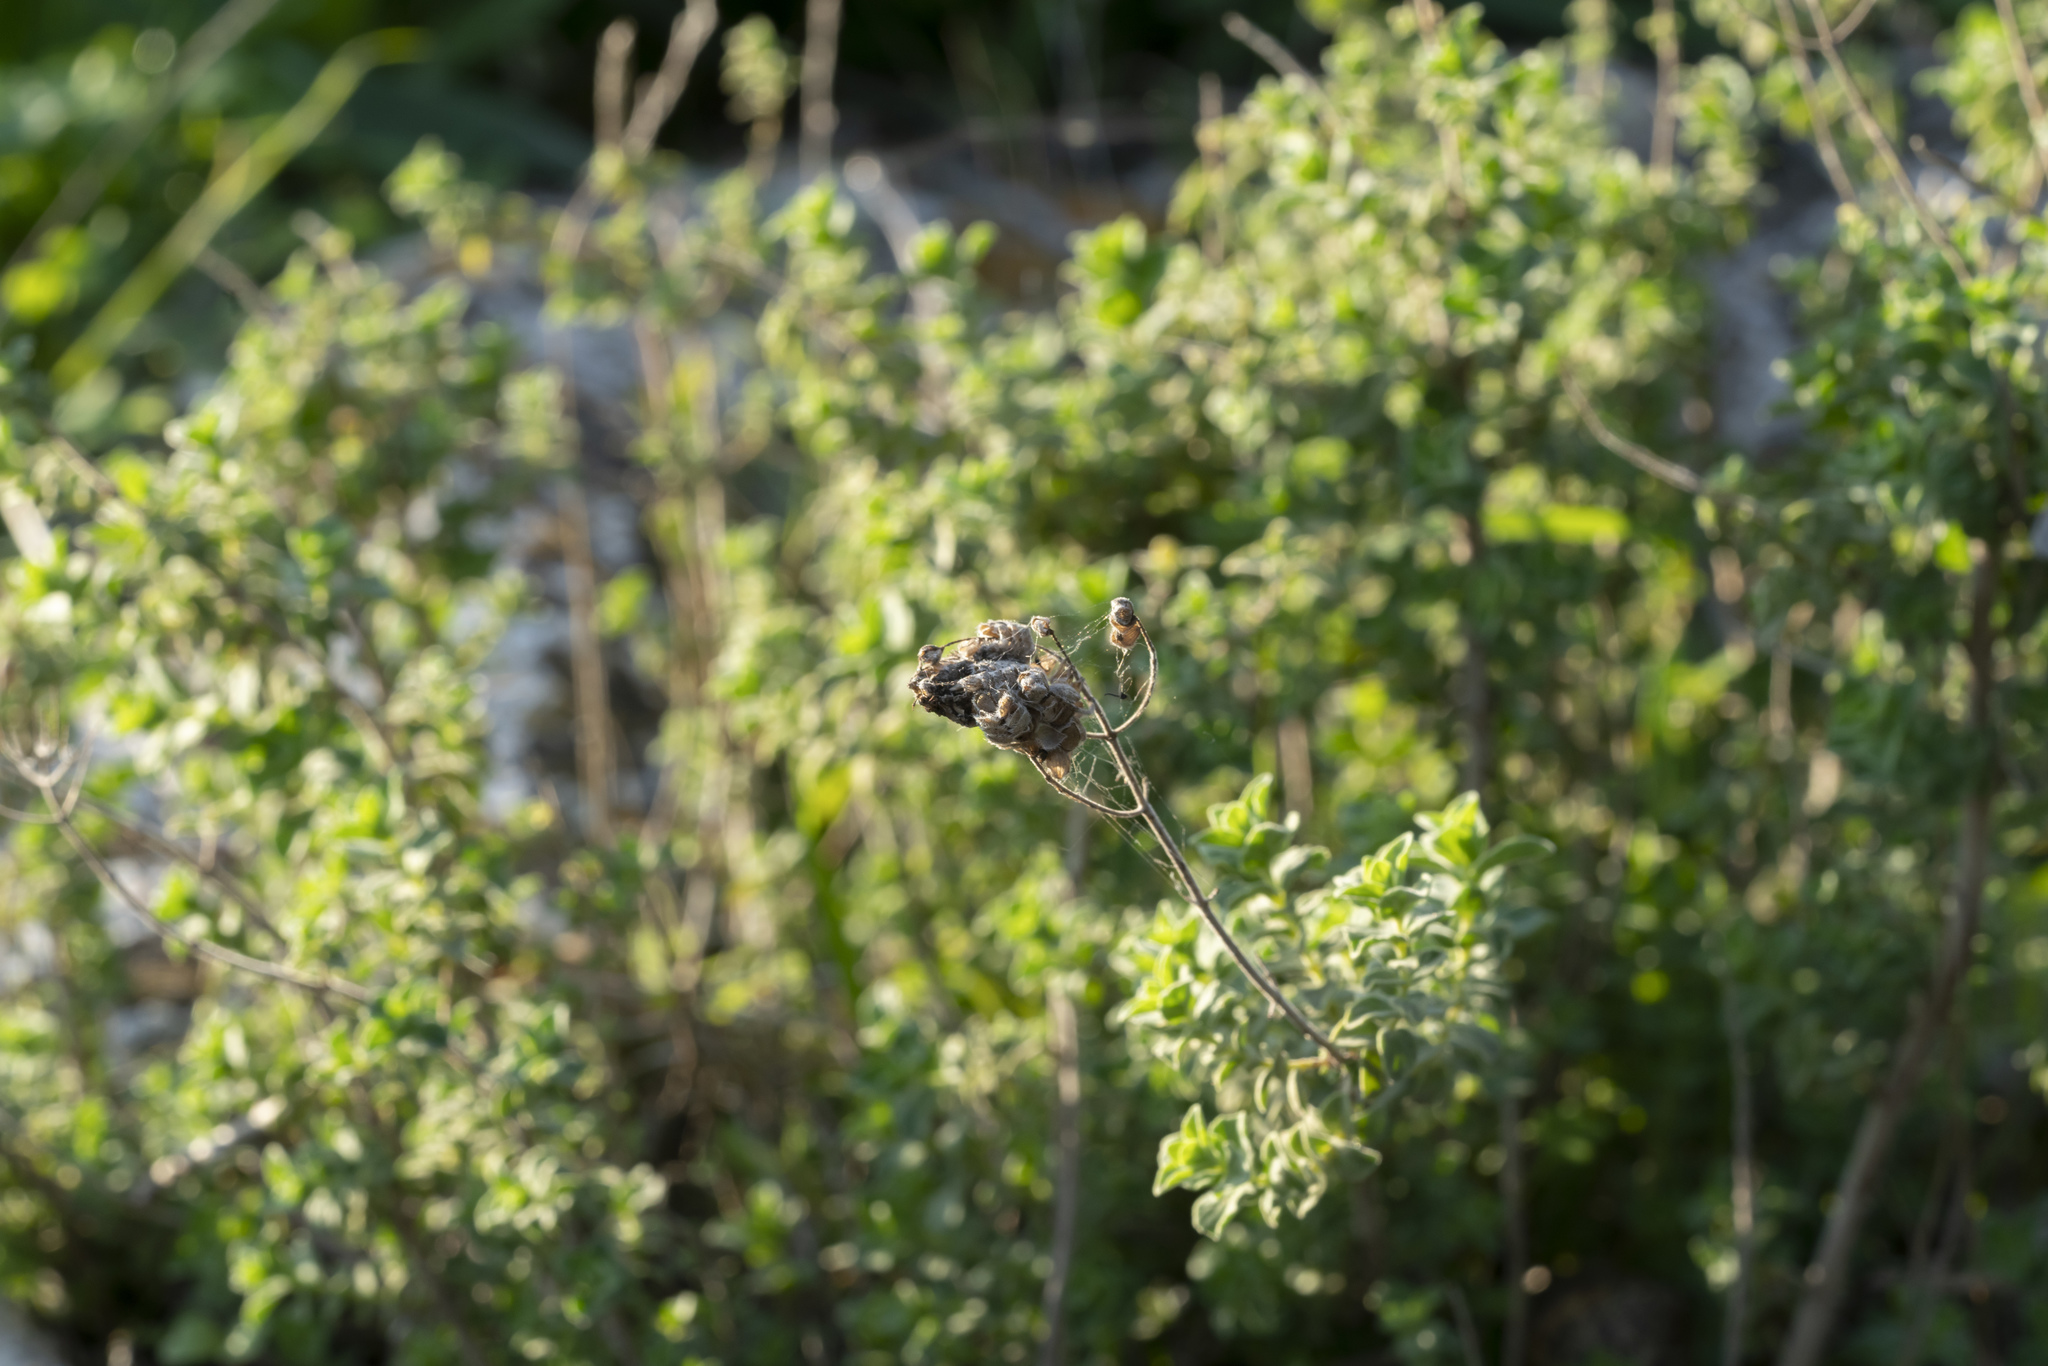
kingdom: Plantae
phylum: Tracheophyta
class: Magnoliopsida
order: Lamiales
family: Lamiaceae
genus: Origanum
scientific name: Origanum onites
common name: Turkish oregano
